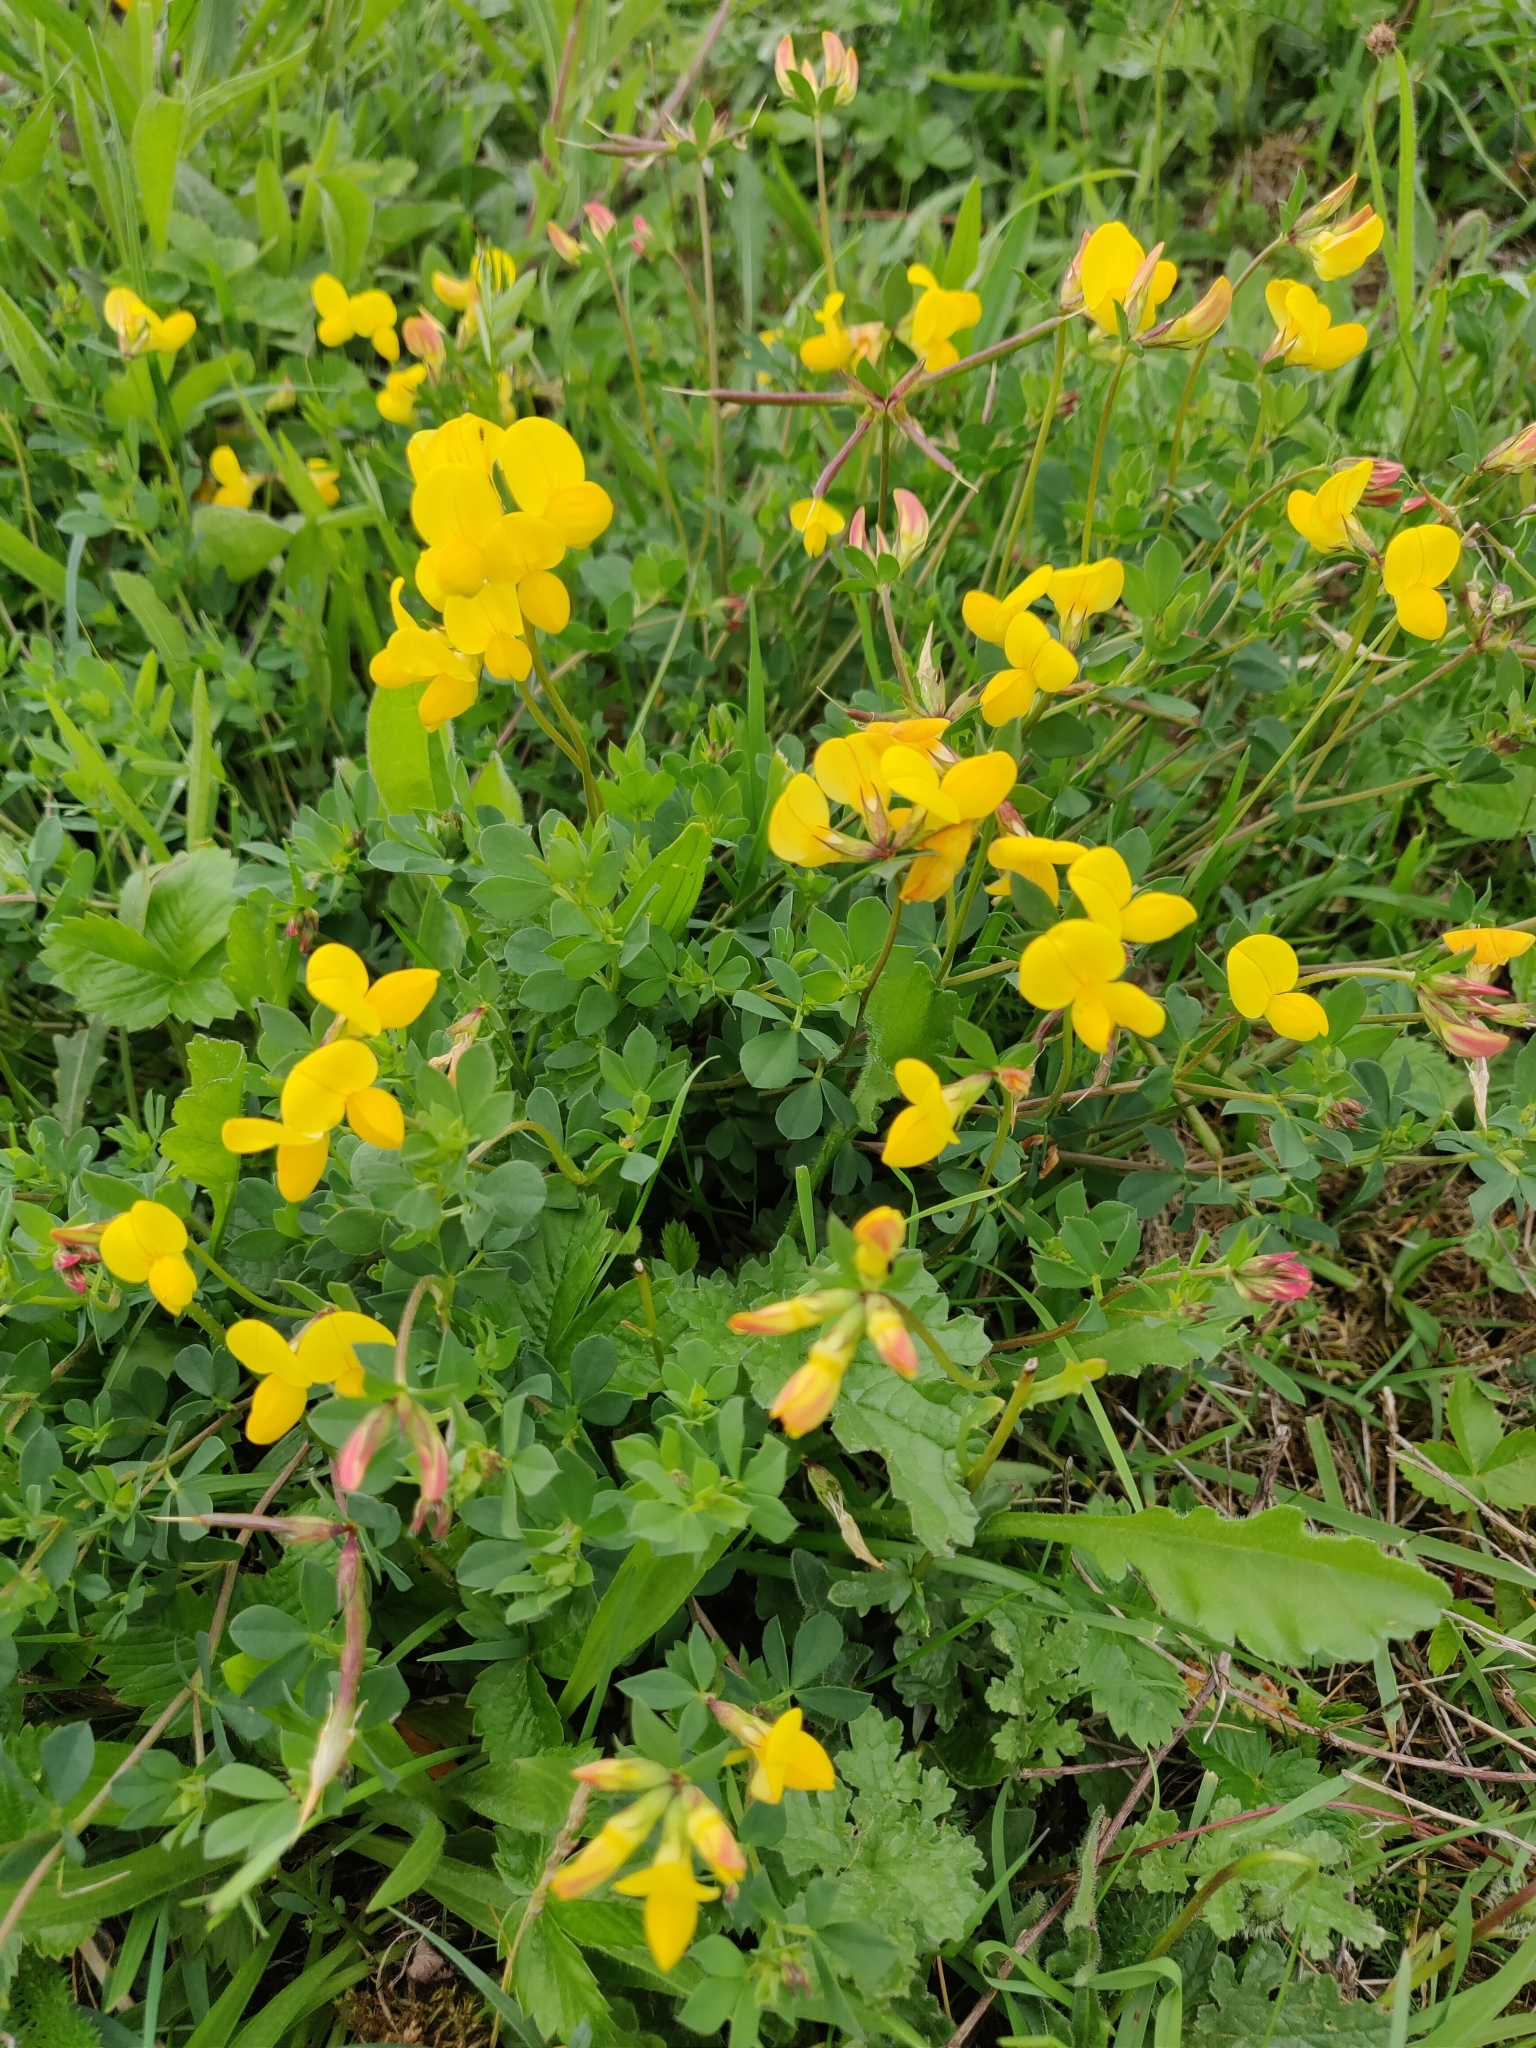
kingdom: Plantae
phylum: Tracheophyta
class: Magnoliopsida
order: Fabales
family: Fabaceae
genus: Lotus
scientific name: Lotus corniculatus
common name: Common bird's-foot-trefoil
